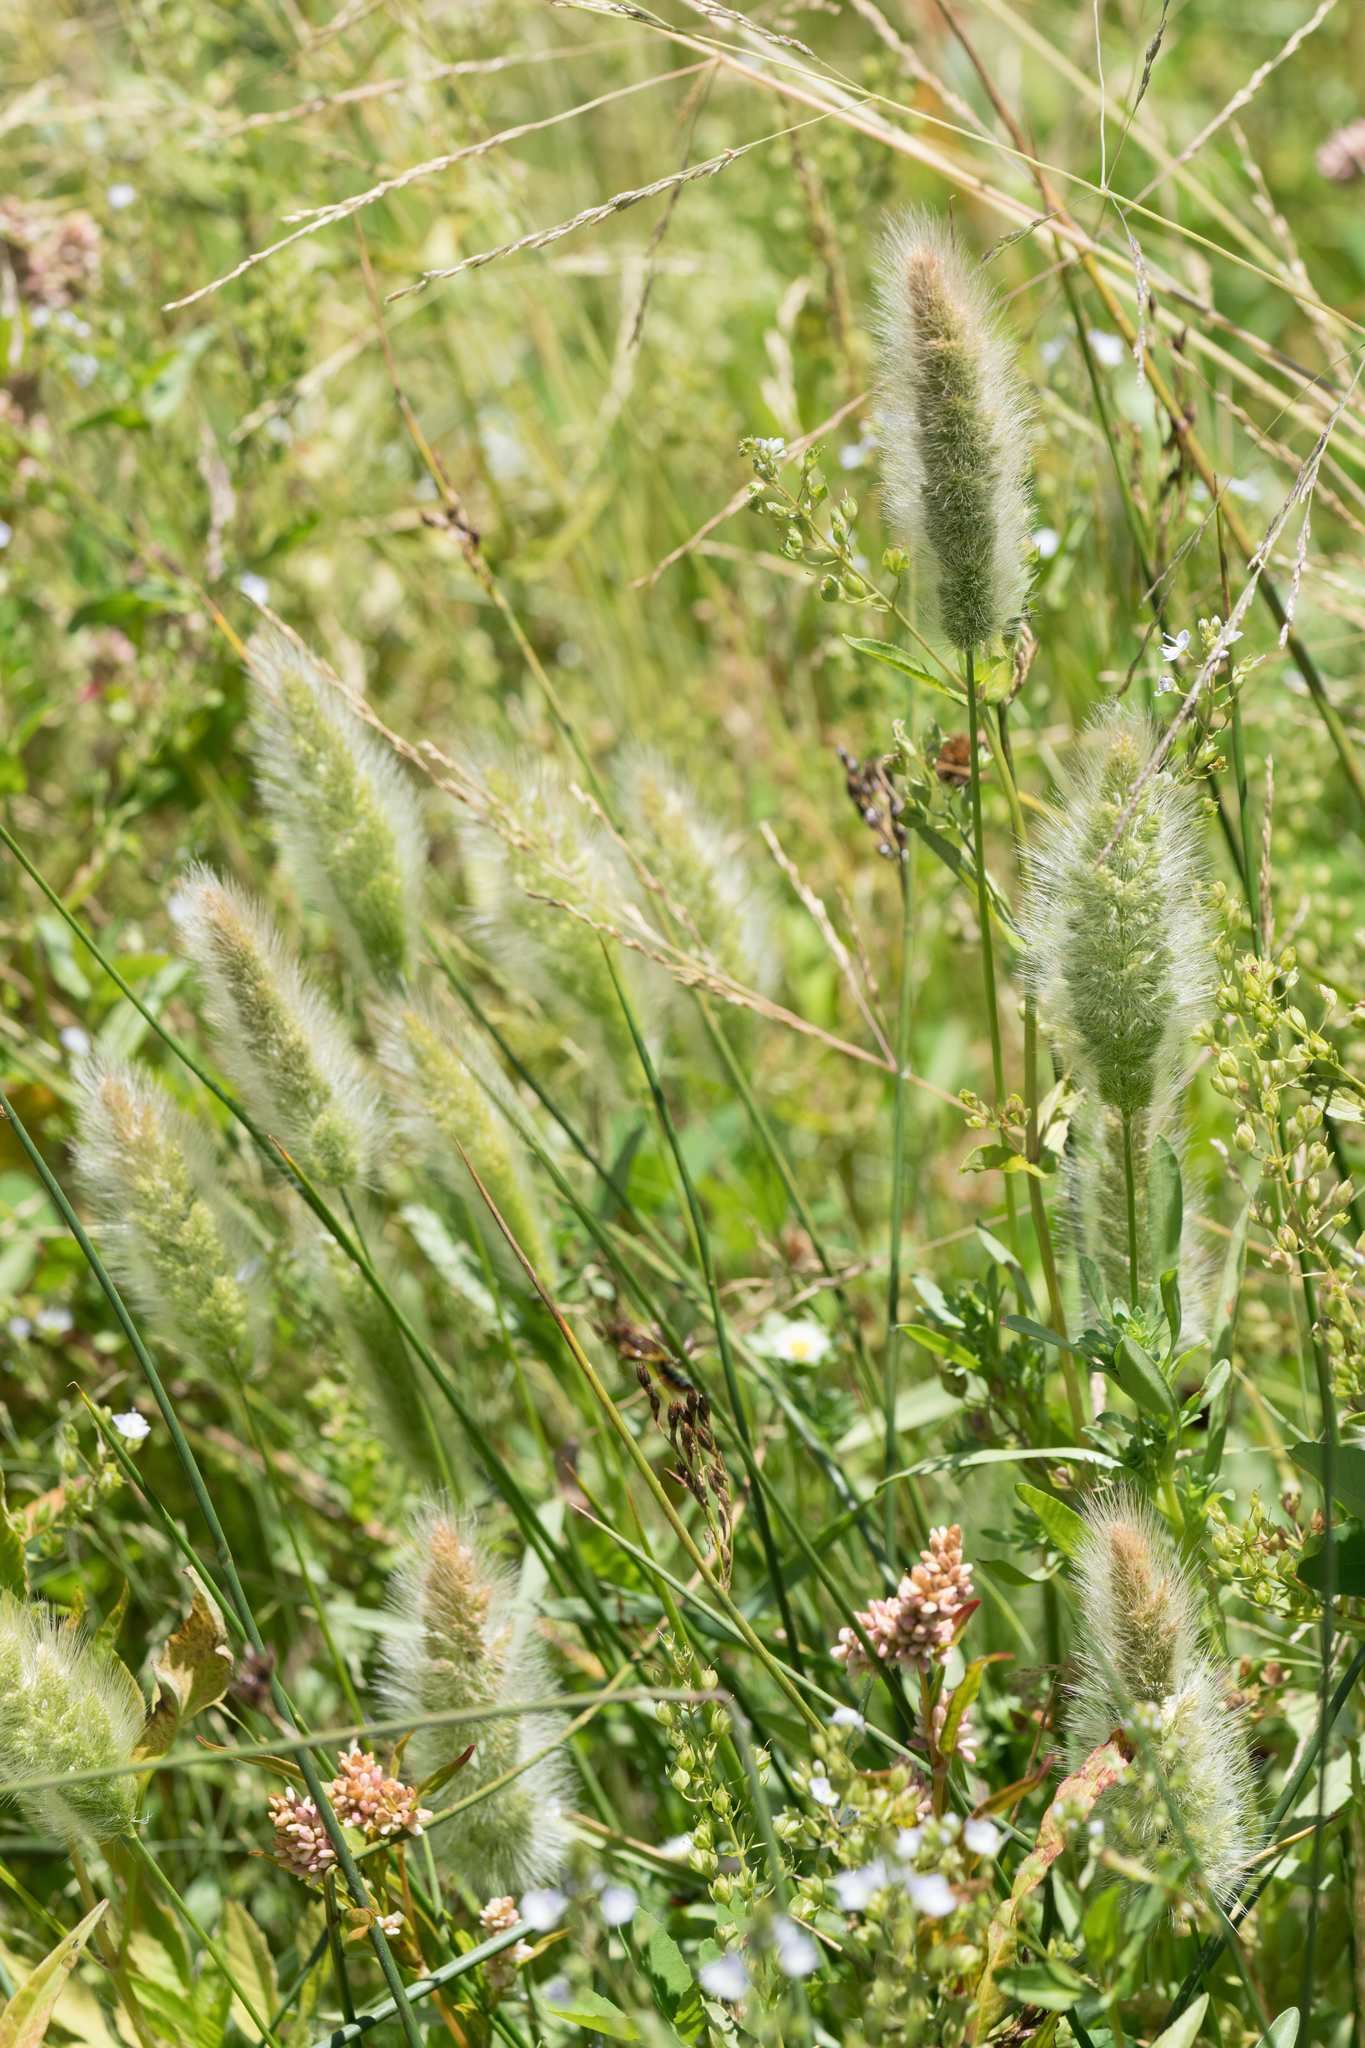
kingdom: Plantae
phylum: Tracheophyta
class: Liliopsida
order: Poales
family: Poaceae
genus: Polypogon
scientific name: Polypogon monspeliensis
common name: Annual rabbitsfoot grass
